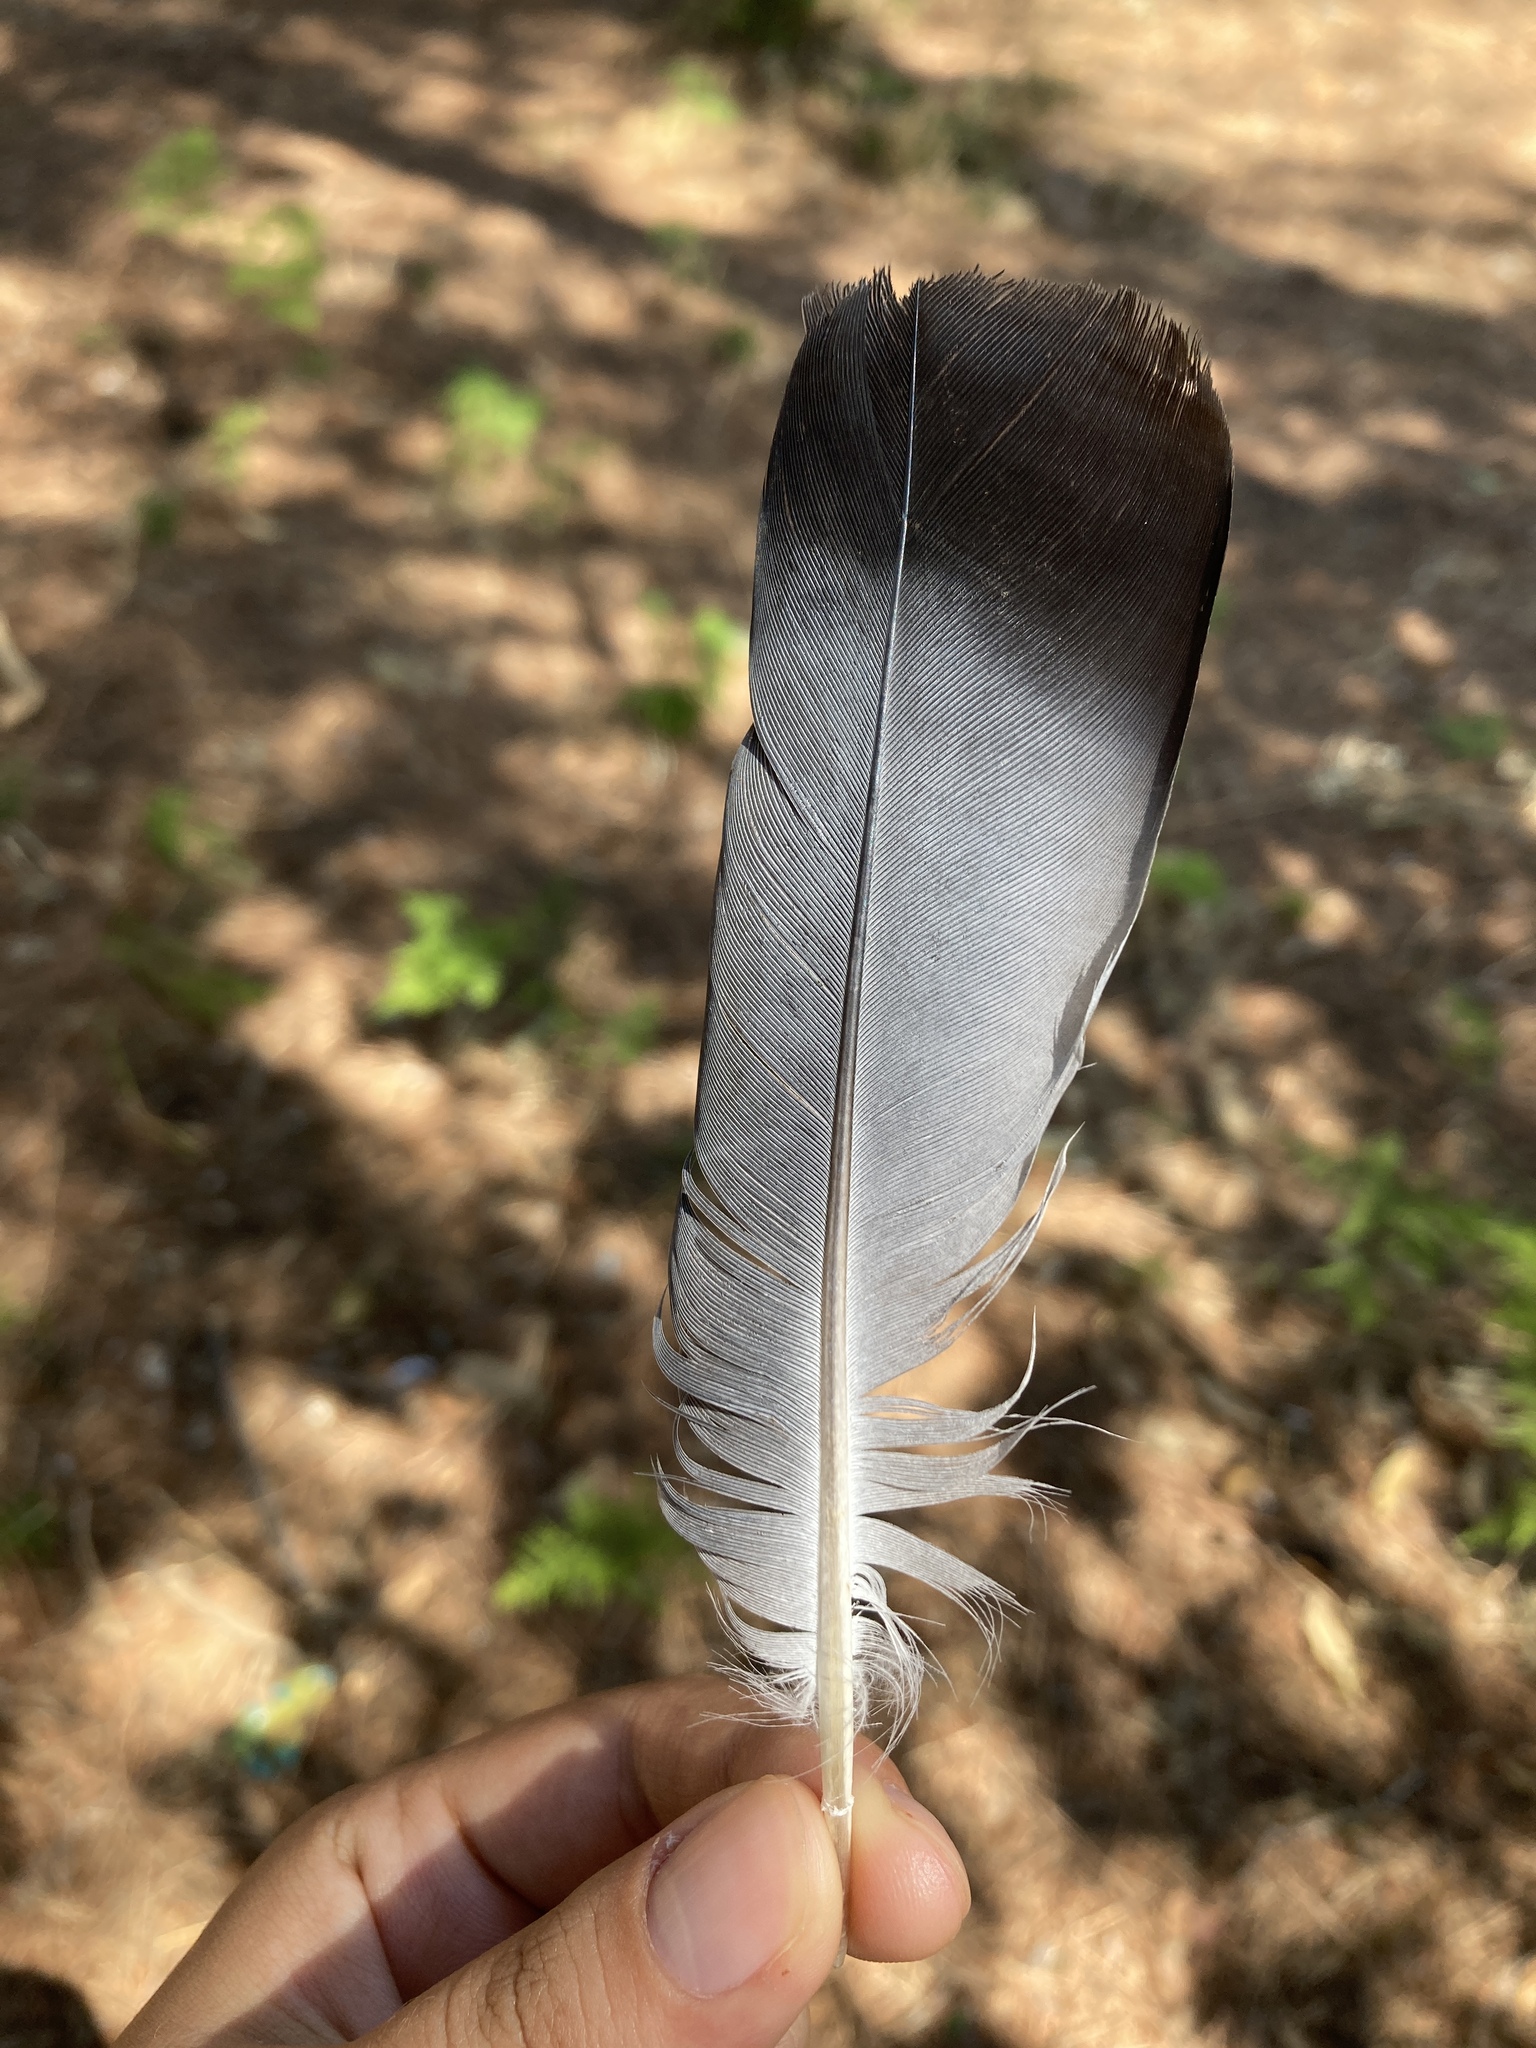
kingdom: Animalia
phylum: Chordata
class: Aves
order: Columbiformes
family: Columbidae
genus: Columba
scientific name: Columba livia
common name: Rock pigeon
